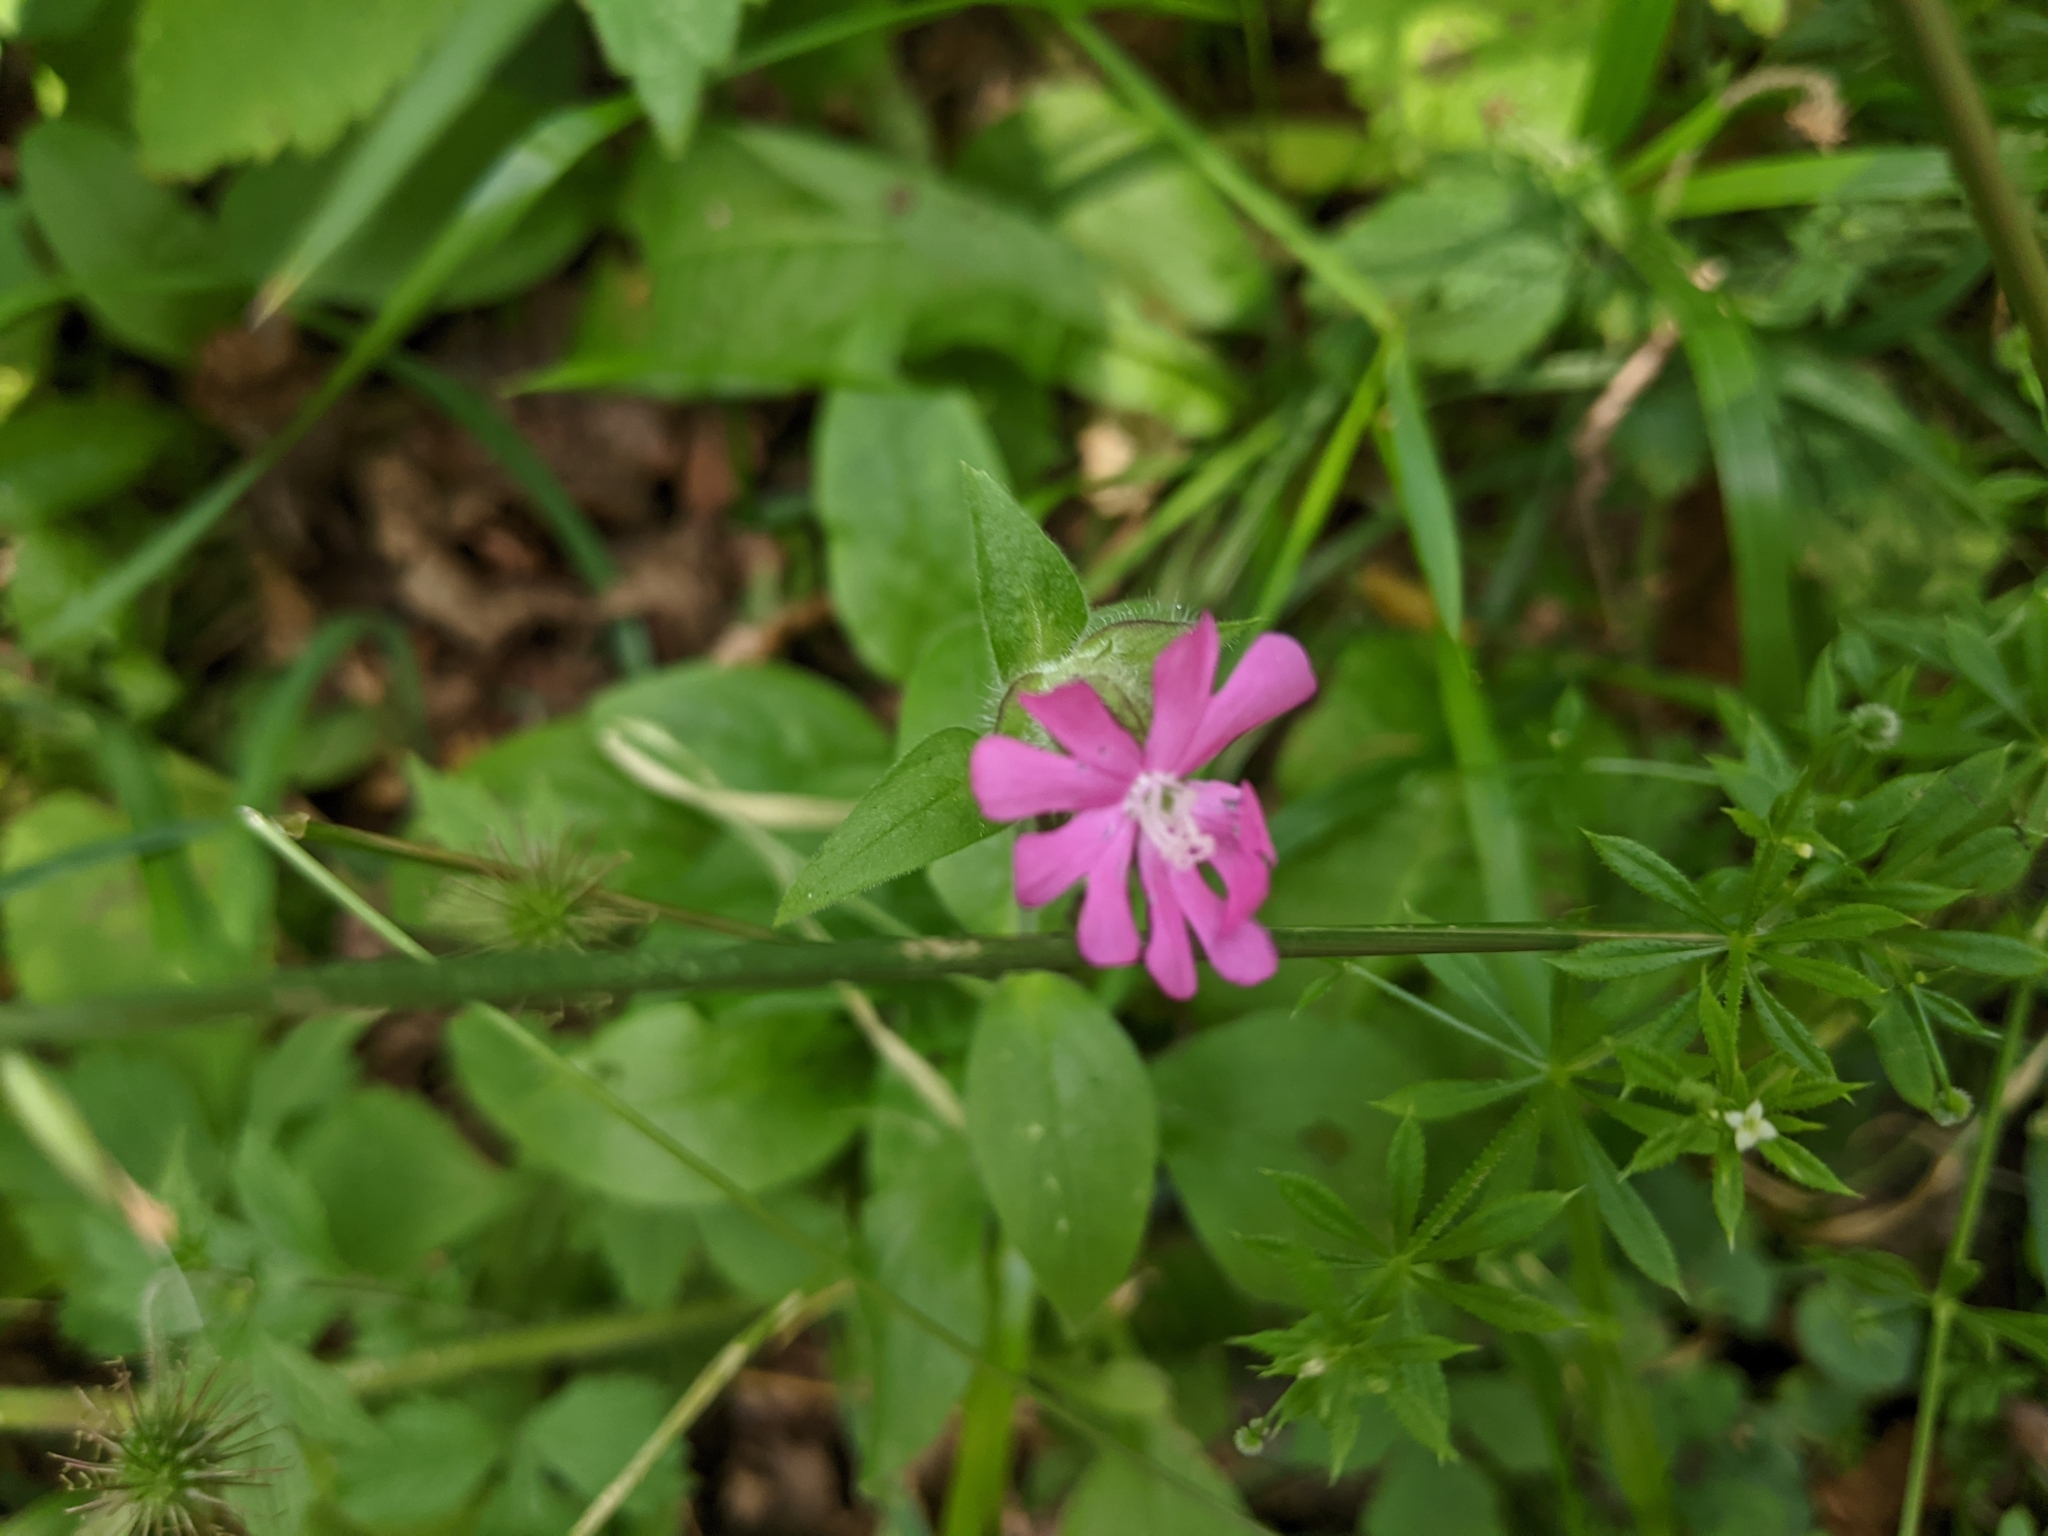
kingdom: Plantae
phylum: Tracheophyta
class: Magnoliopsida
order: Caryophyllales
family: Caryophyllaceae
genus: Silene
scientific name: Silene dioica
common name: Red campion
